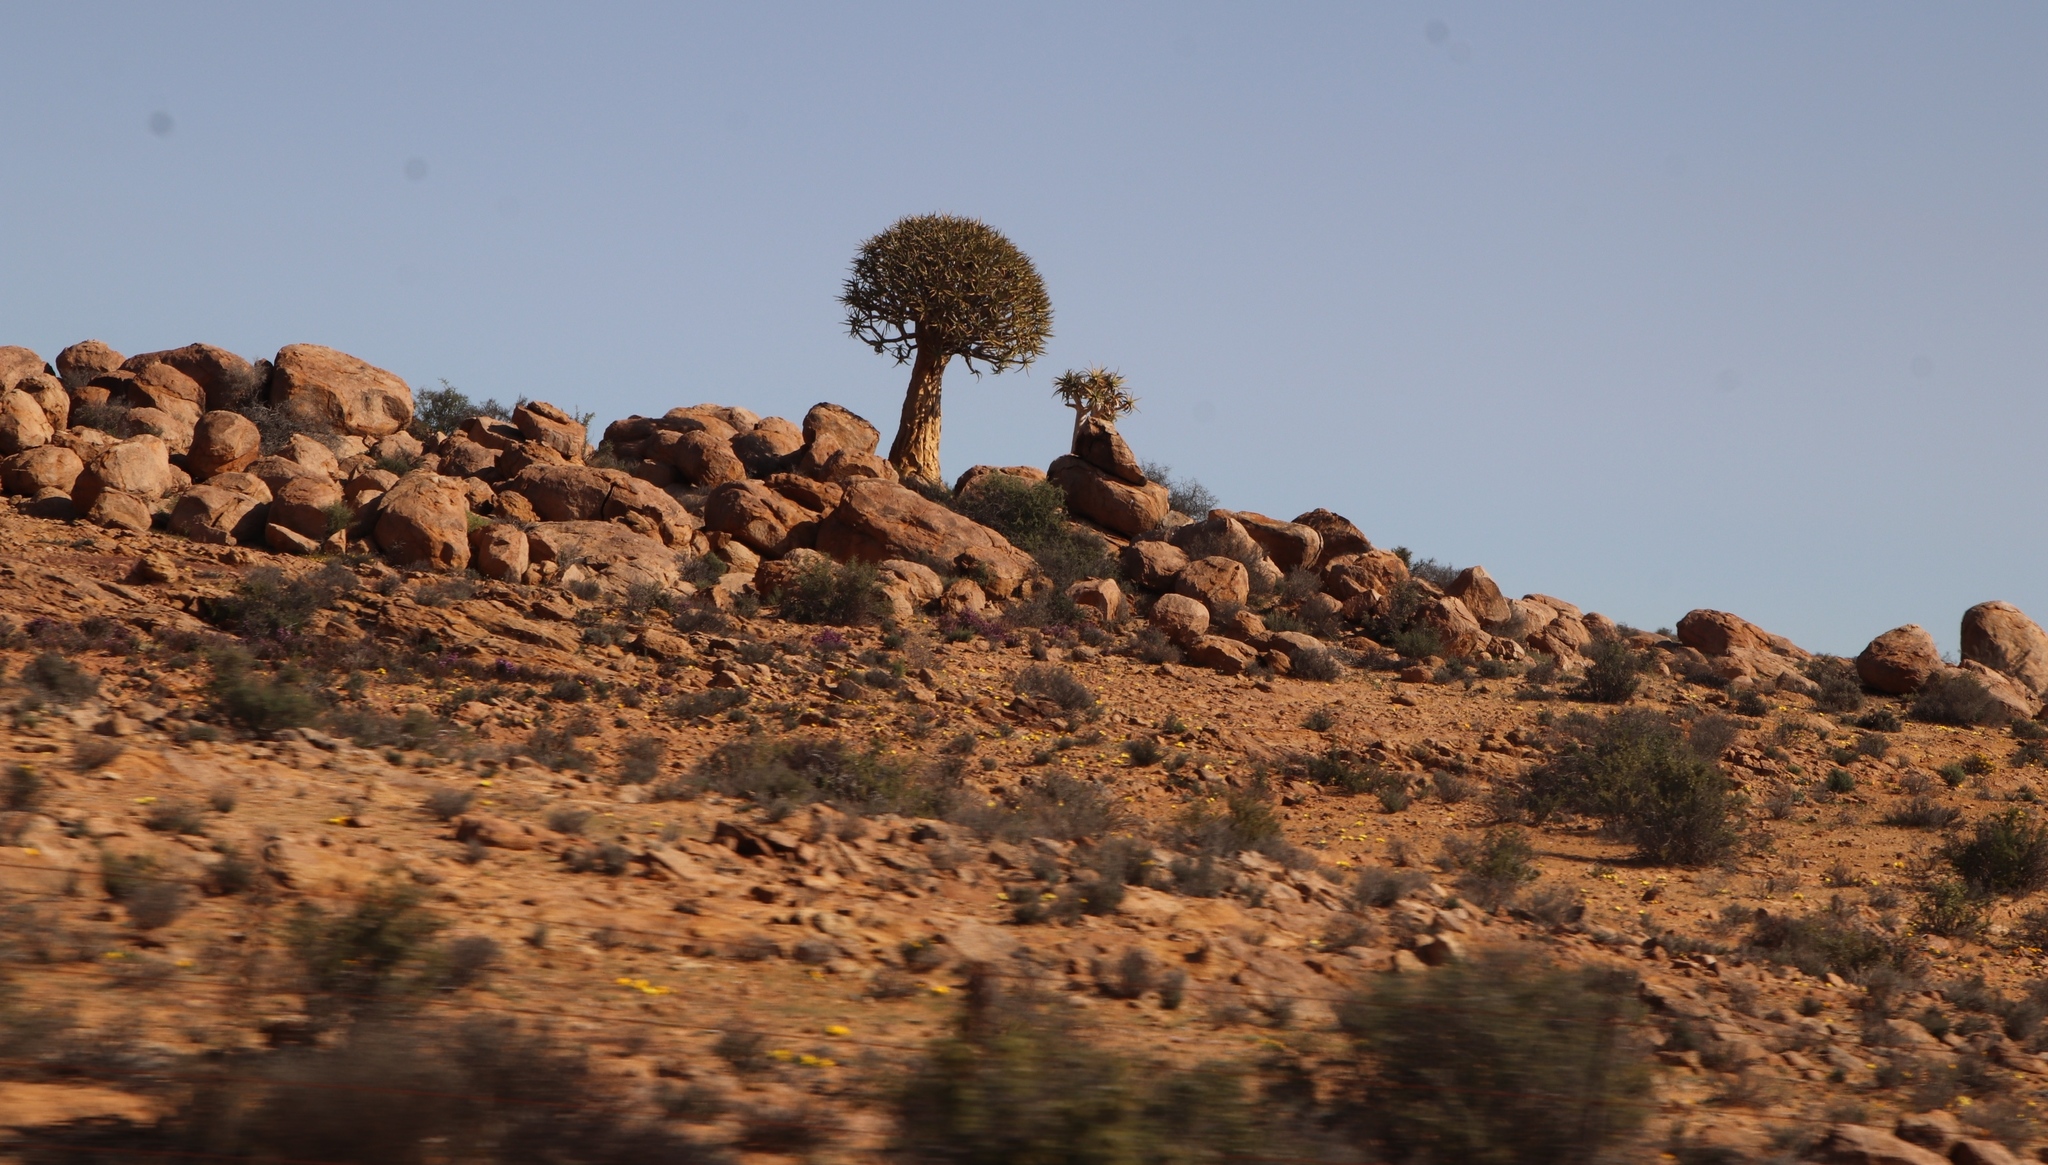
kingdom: Plantae
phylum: Tracheophyta
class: Liliopsida
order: Asparagales
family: Asphodelaceae
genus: Aloidendron
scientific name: Aloidendron dichotomum
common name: Quiver tree
